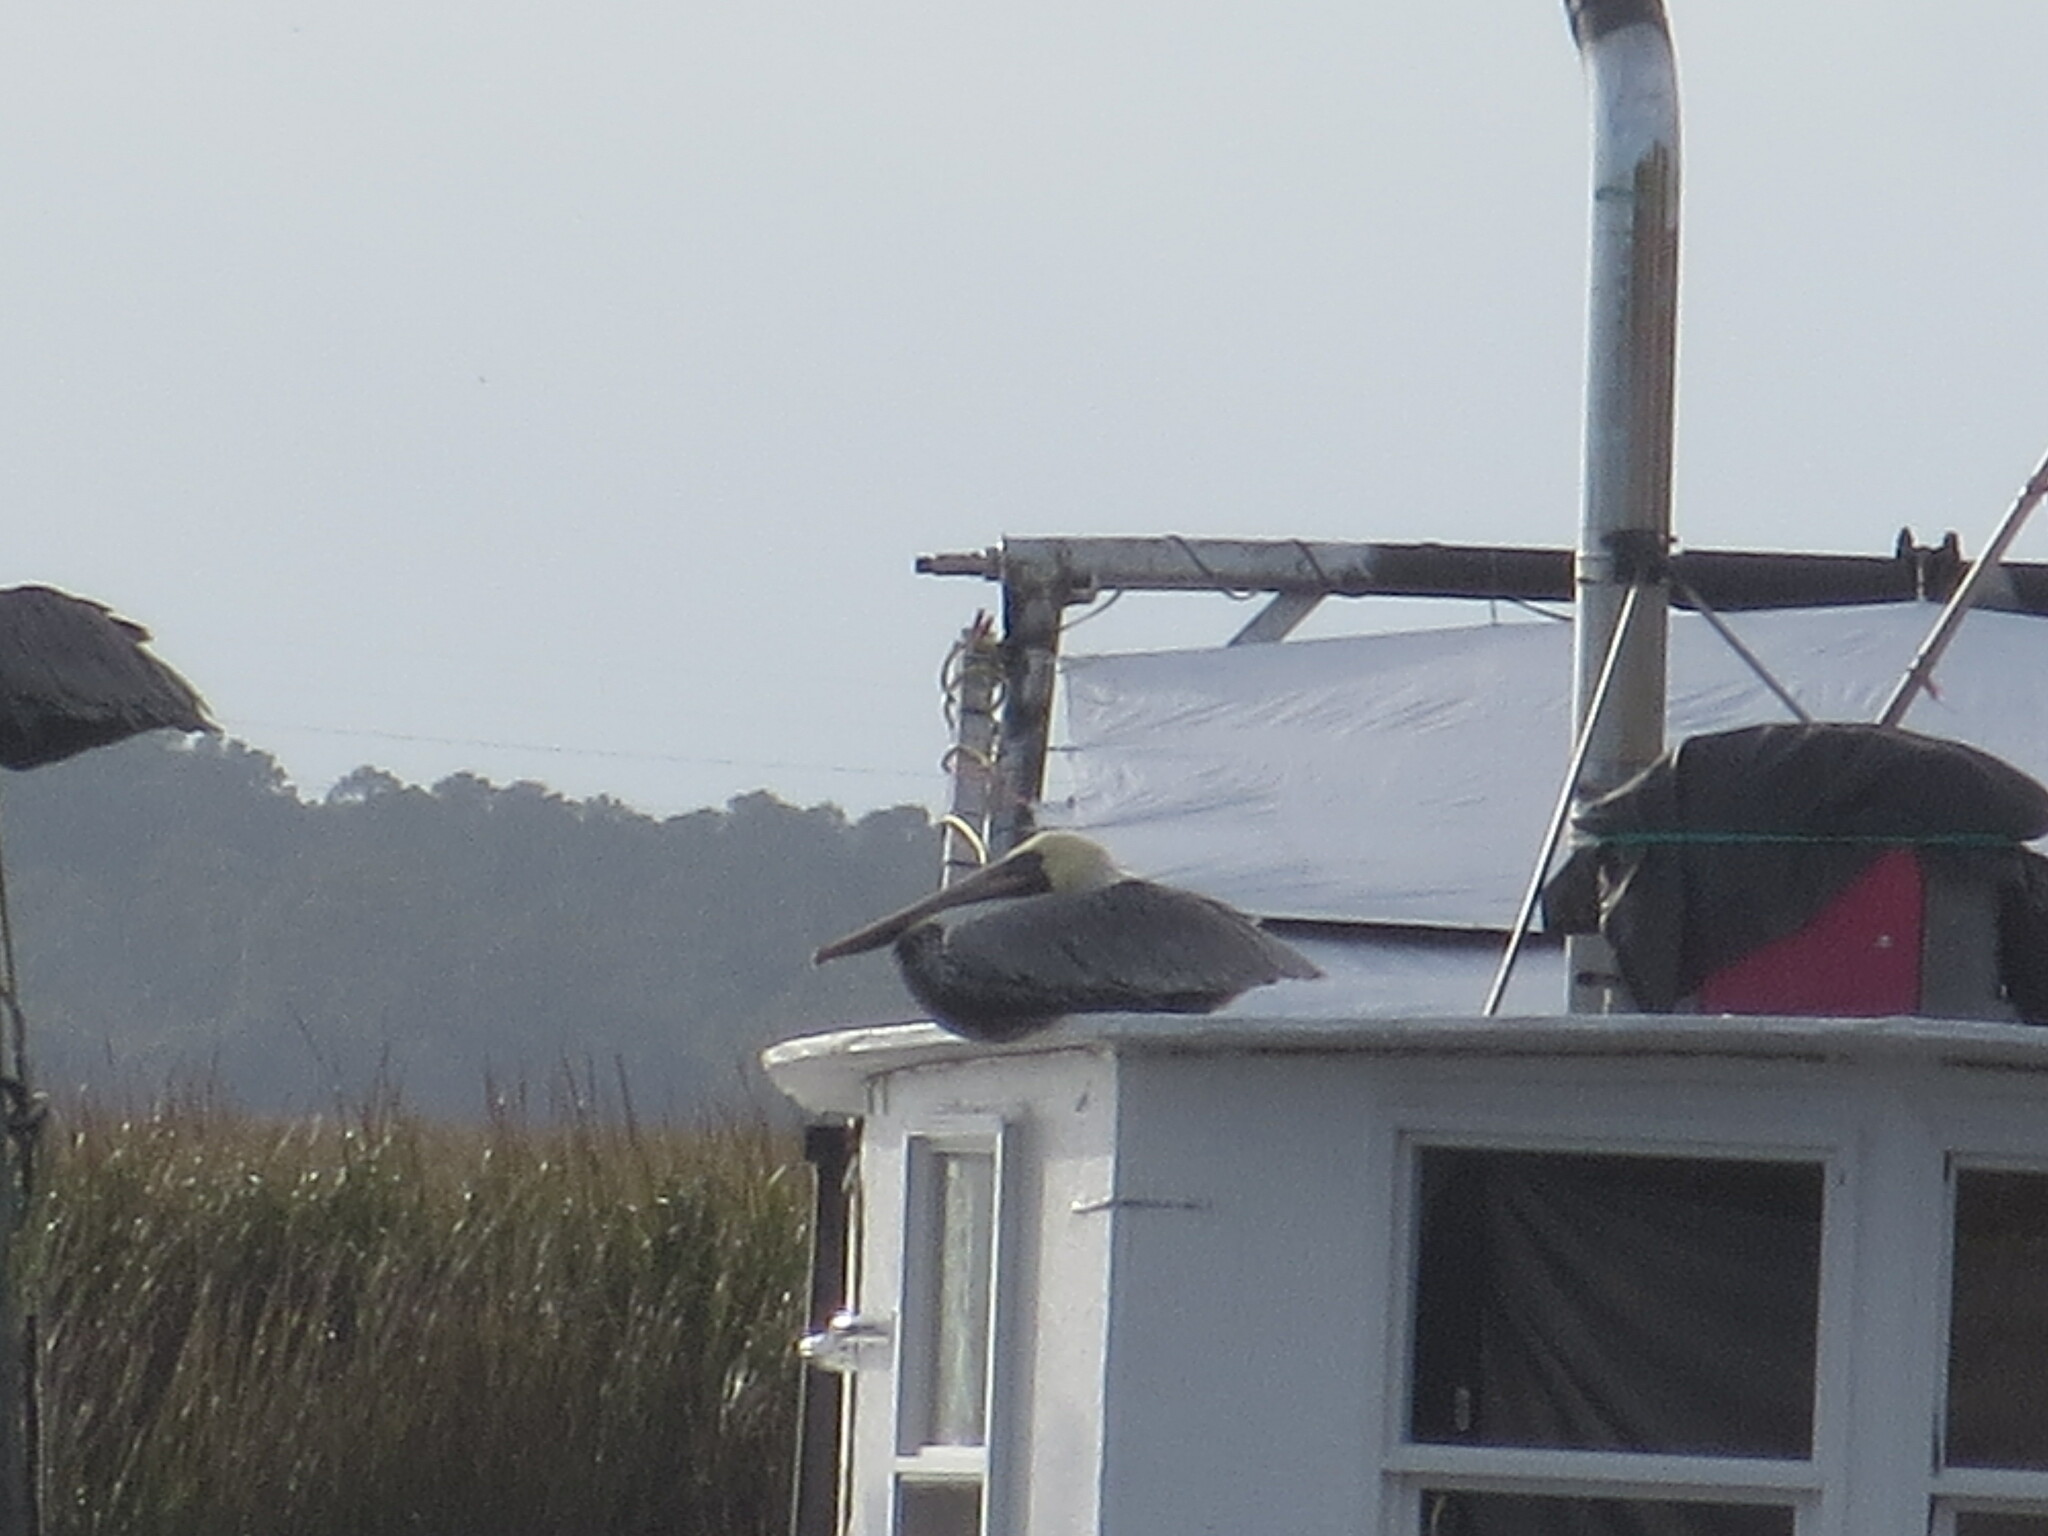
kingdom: Animalia
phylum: Chordata
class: Aves
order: Pelecaniformes
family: Pelecanidae
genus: Pelecanus
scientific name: Pelecanus occidentalis
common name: Brown pelican
